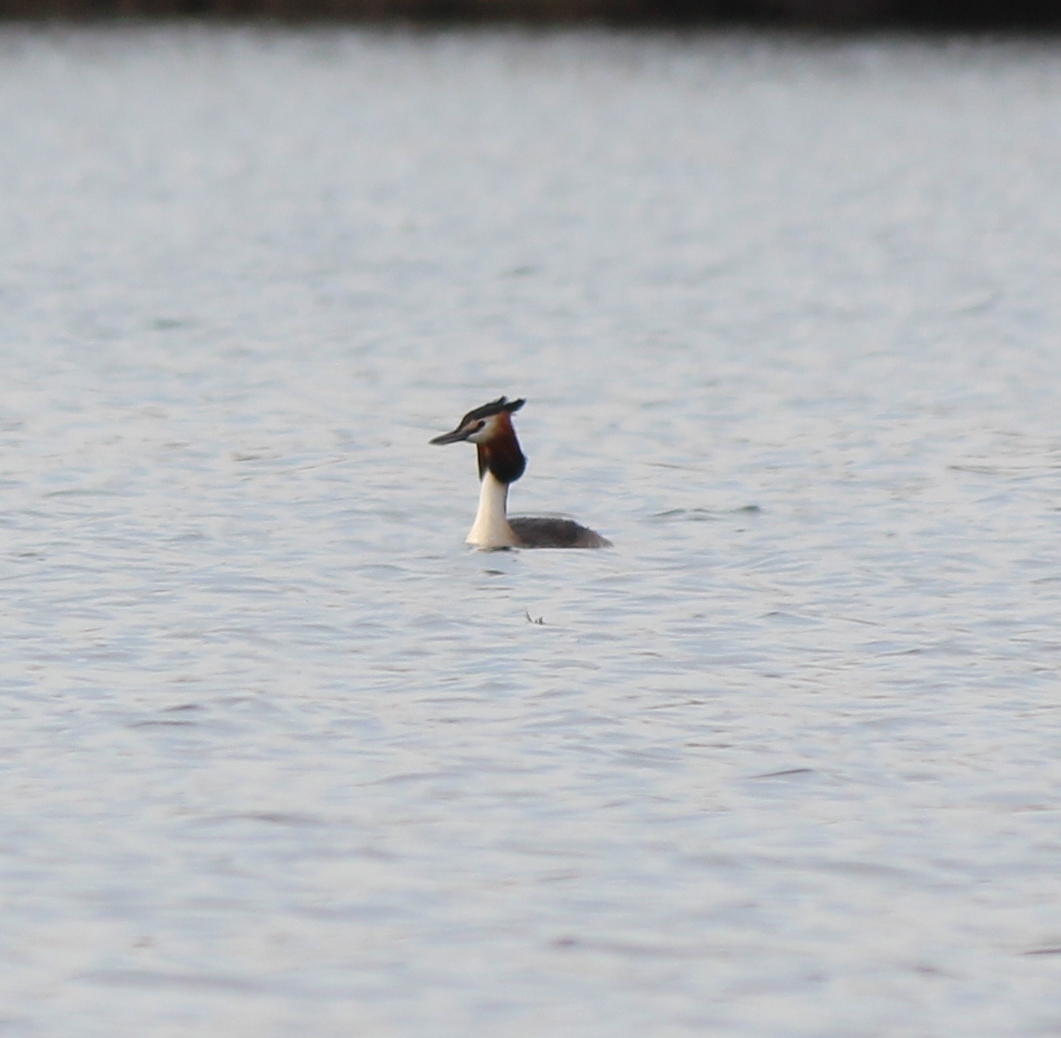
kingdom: Animalia
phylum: Chordata
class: Aves
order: Podicipediformes
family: Podicipedidae
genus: Podiceps
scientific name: Podiceps cristatus
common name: Great crested grebe
